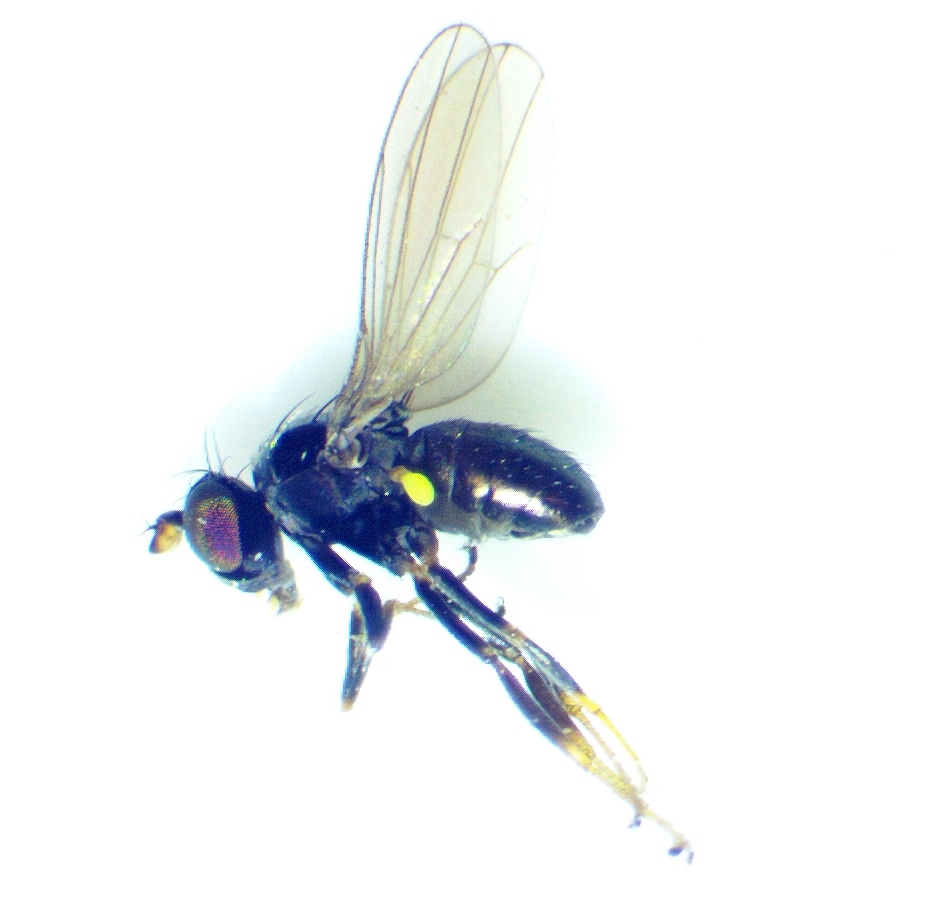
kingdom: Animalia
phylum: Arthropoda
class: Insecta
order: Diptera
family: Ephydridae
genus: Hydrellia
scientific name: Hydrellia formosa
